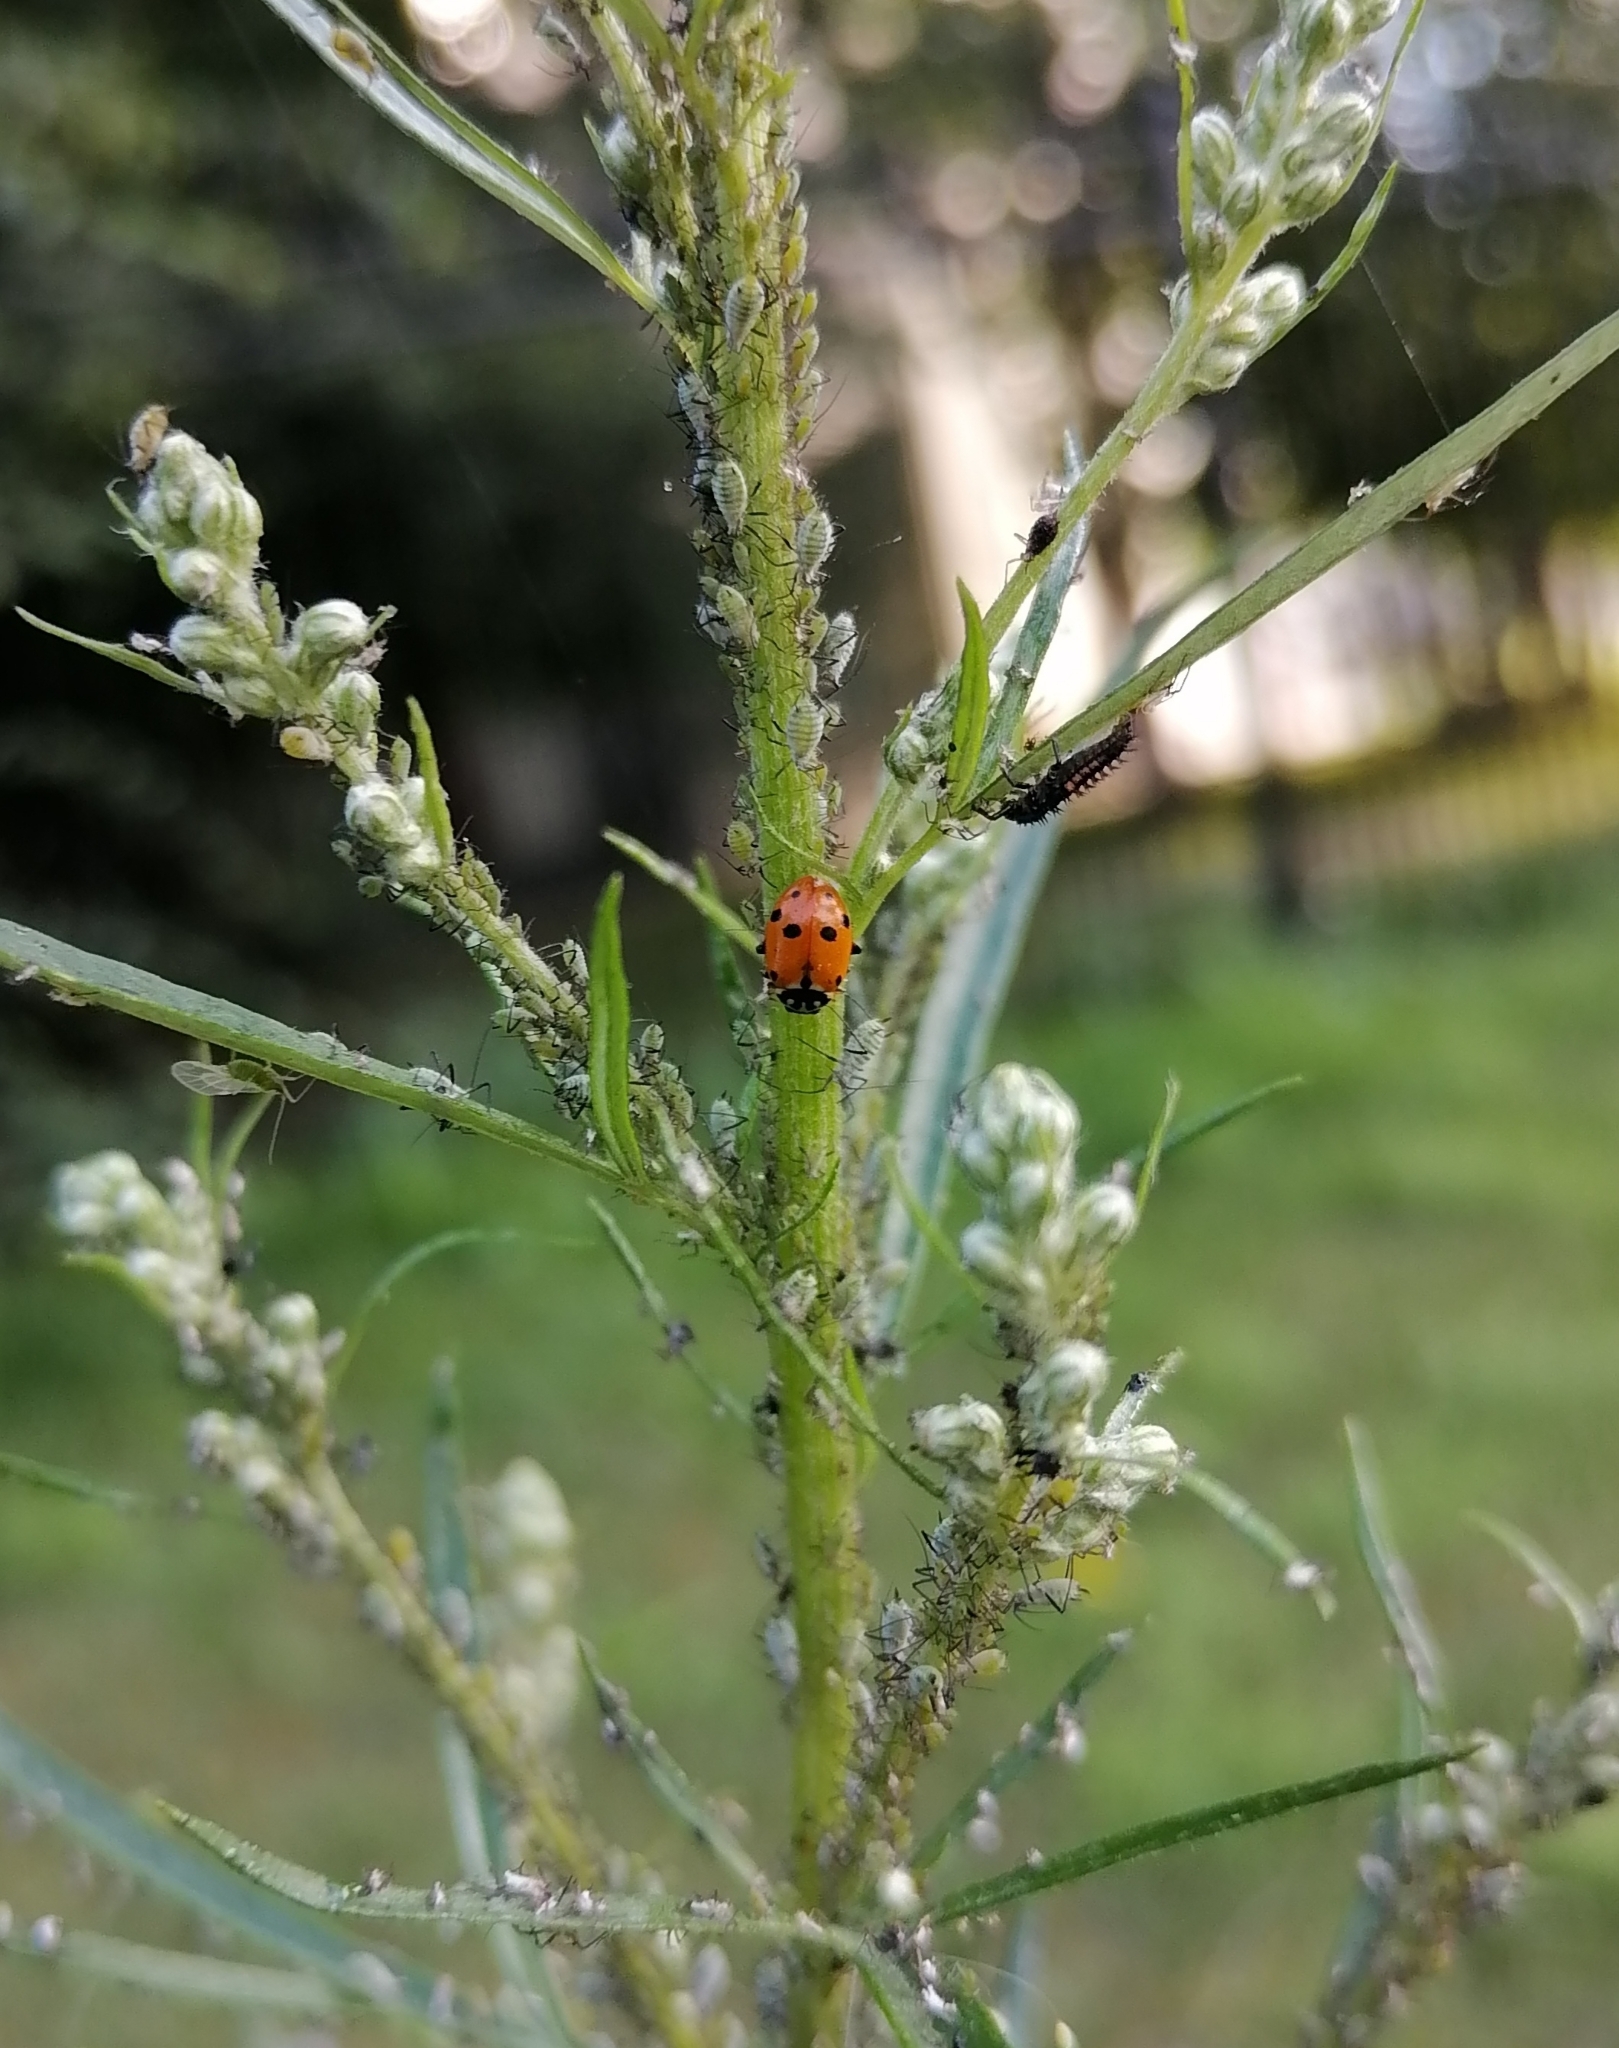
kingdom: Animalia
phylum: Arthropoda
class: Insecta
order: Coleoptera
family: Coccinellidae
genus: Hippodamia
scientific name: Hippodamia variegata
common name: Ladybird beetle
